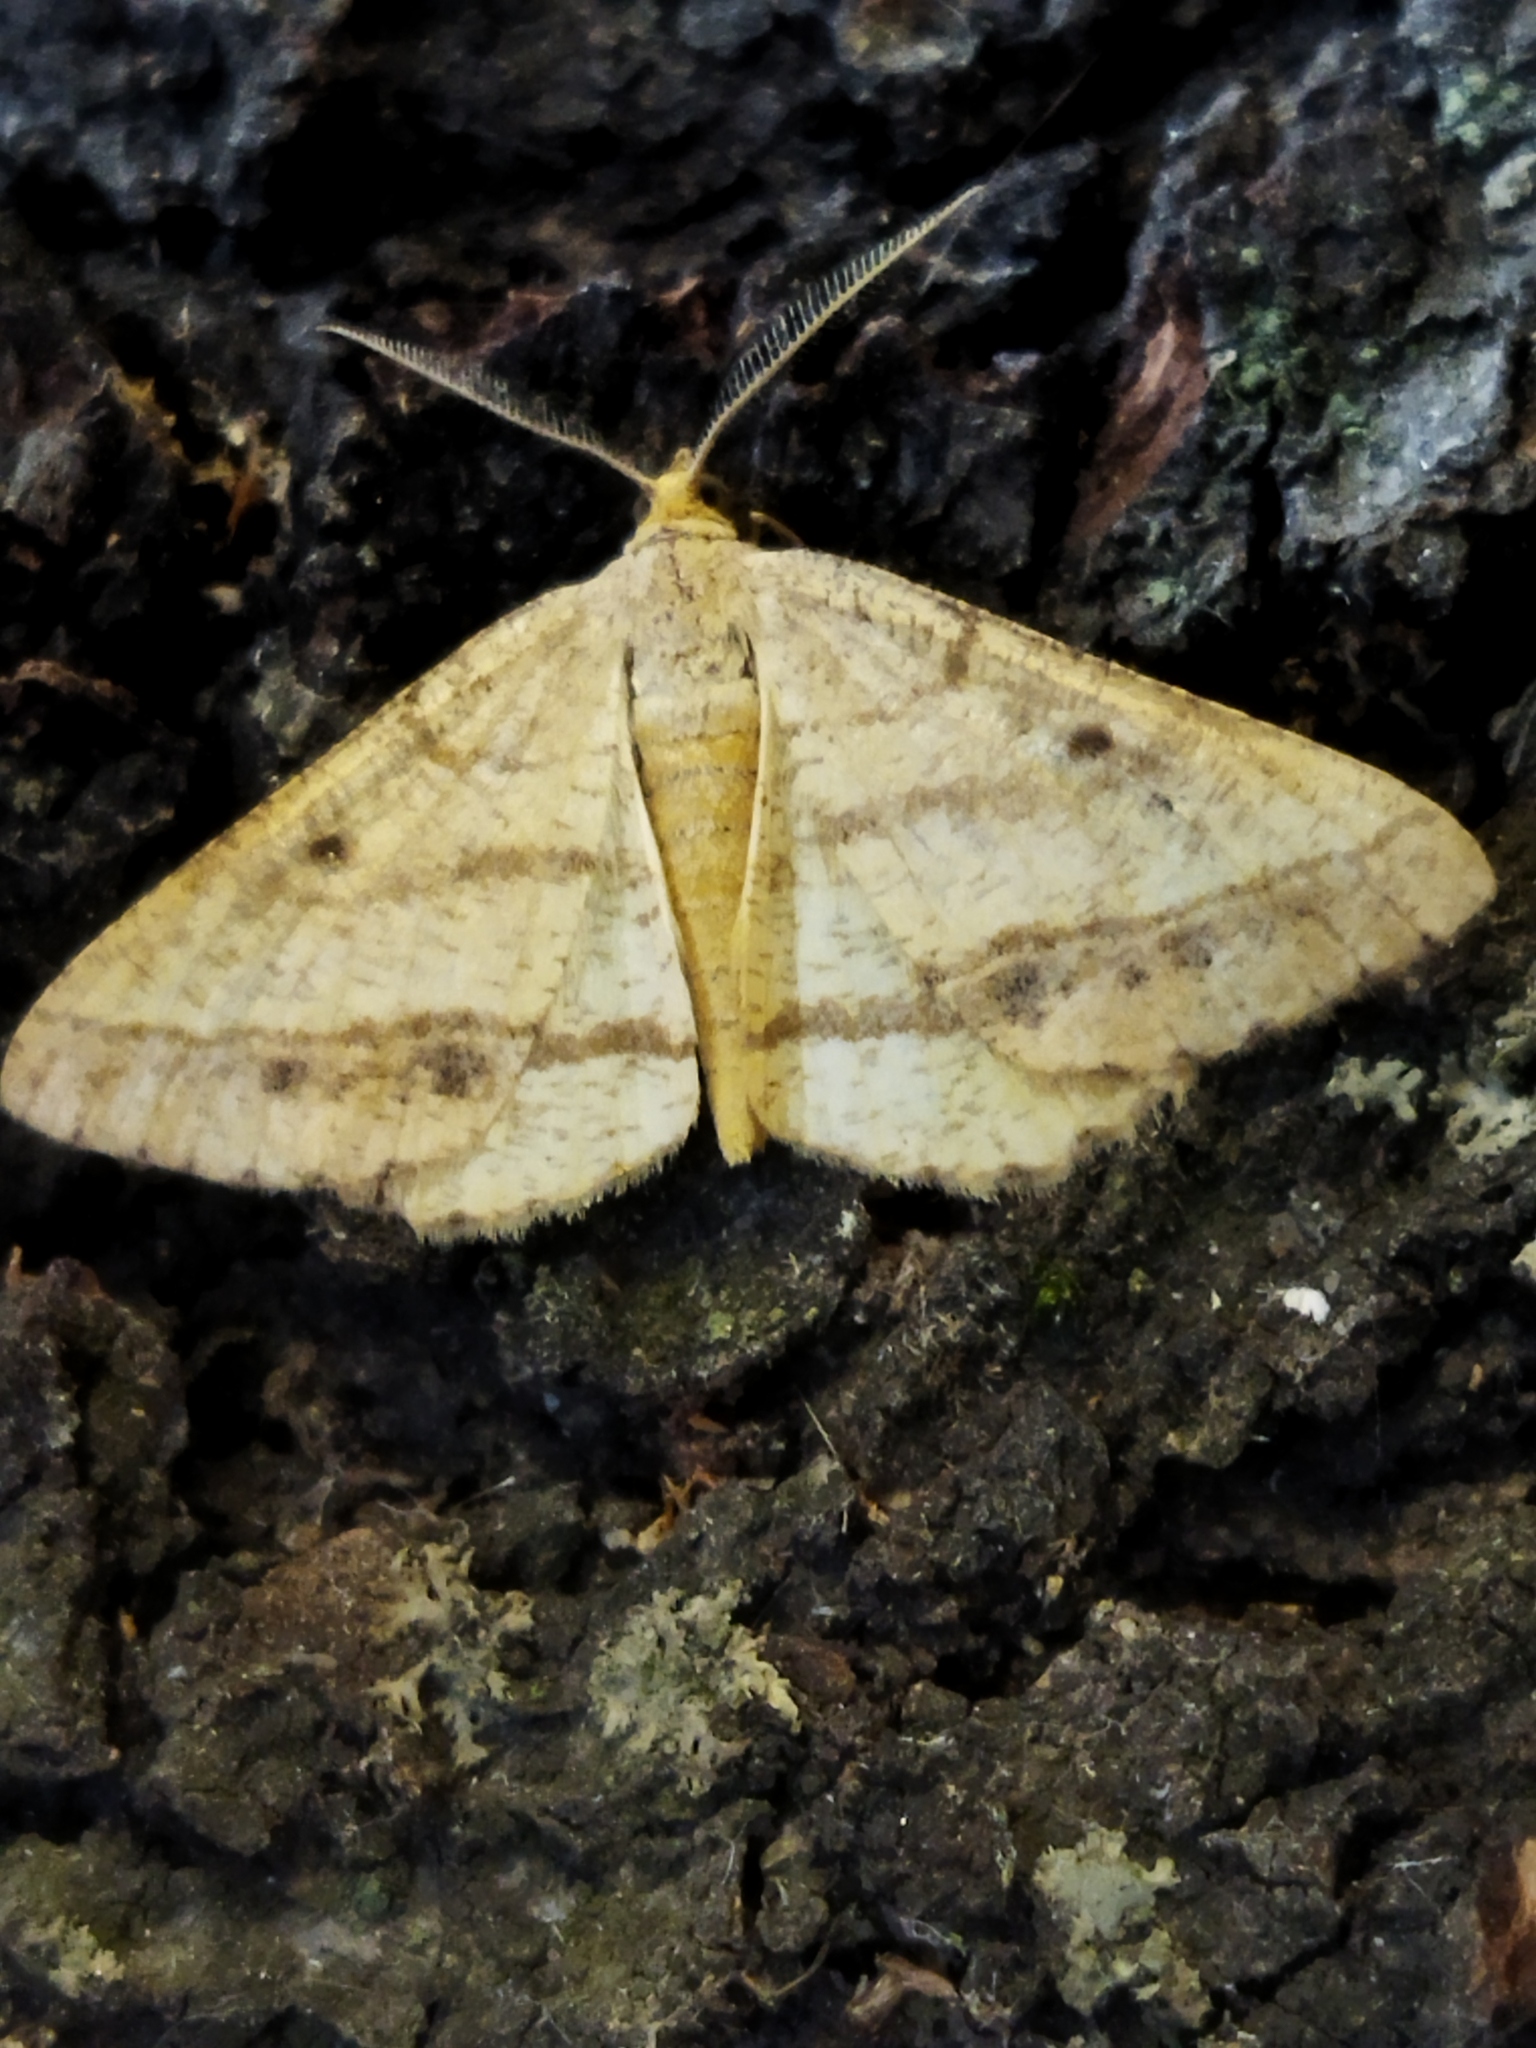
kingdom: Animalia
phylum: Arthropoda
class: Insecta
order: Lepidoptera
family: Geometridae
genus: Tephrina
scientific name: Tephrina arenacearia
